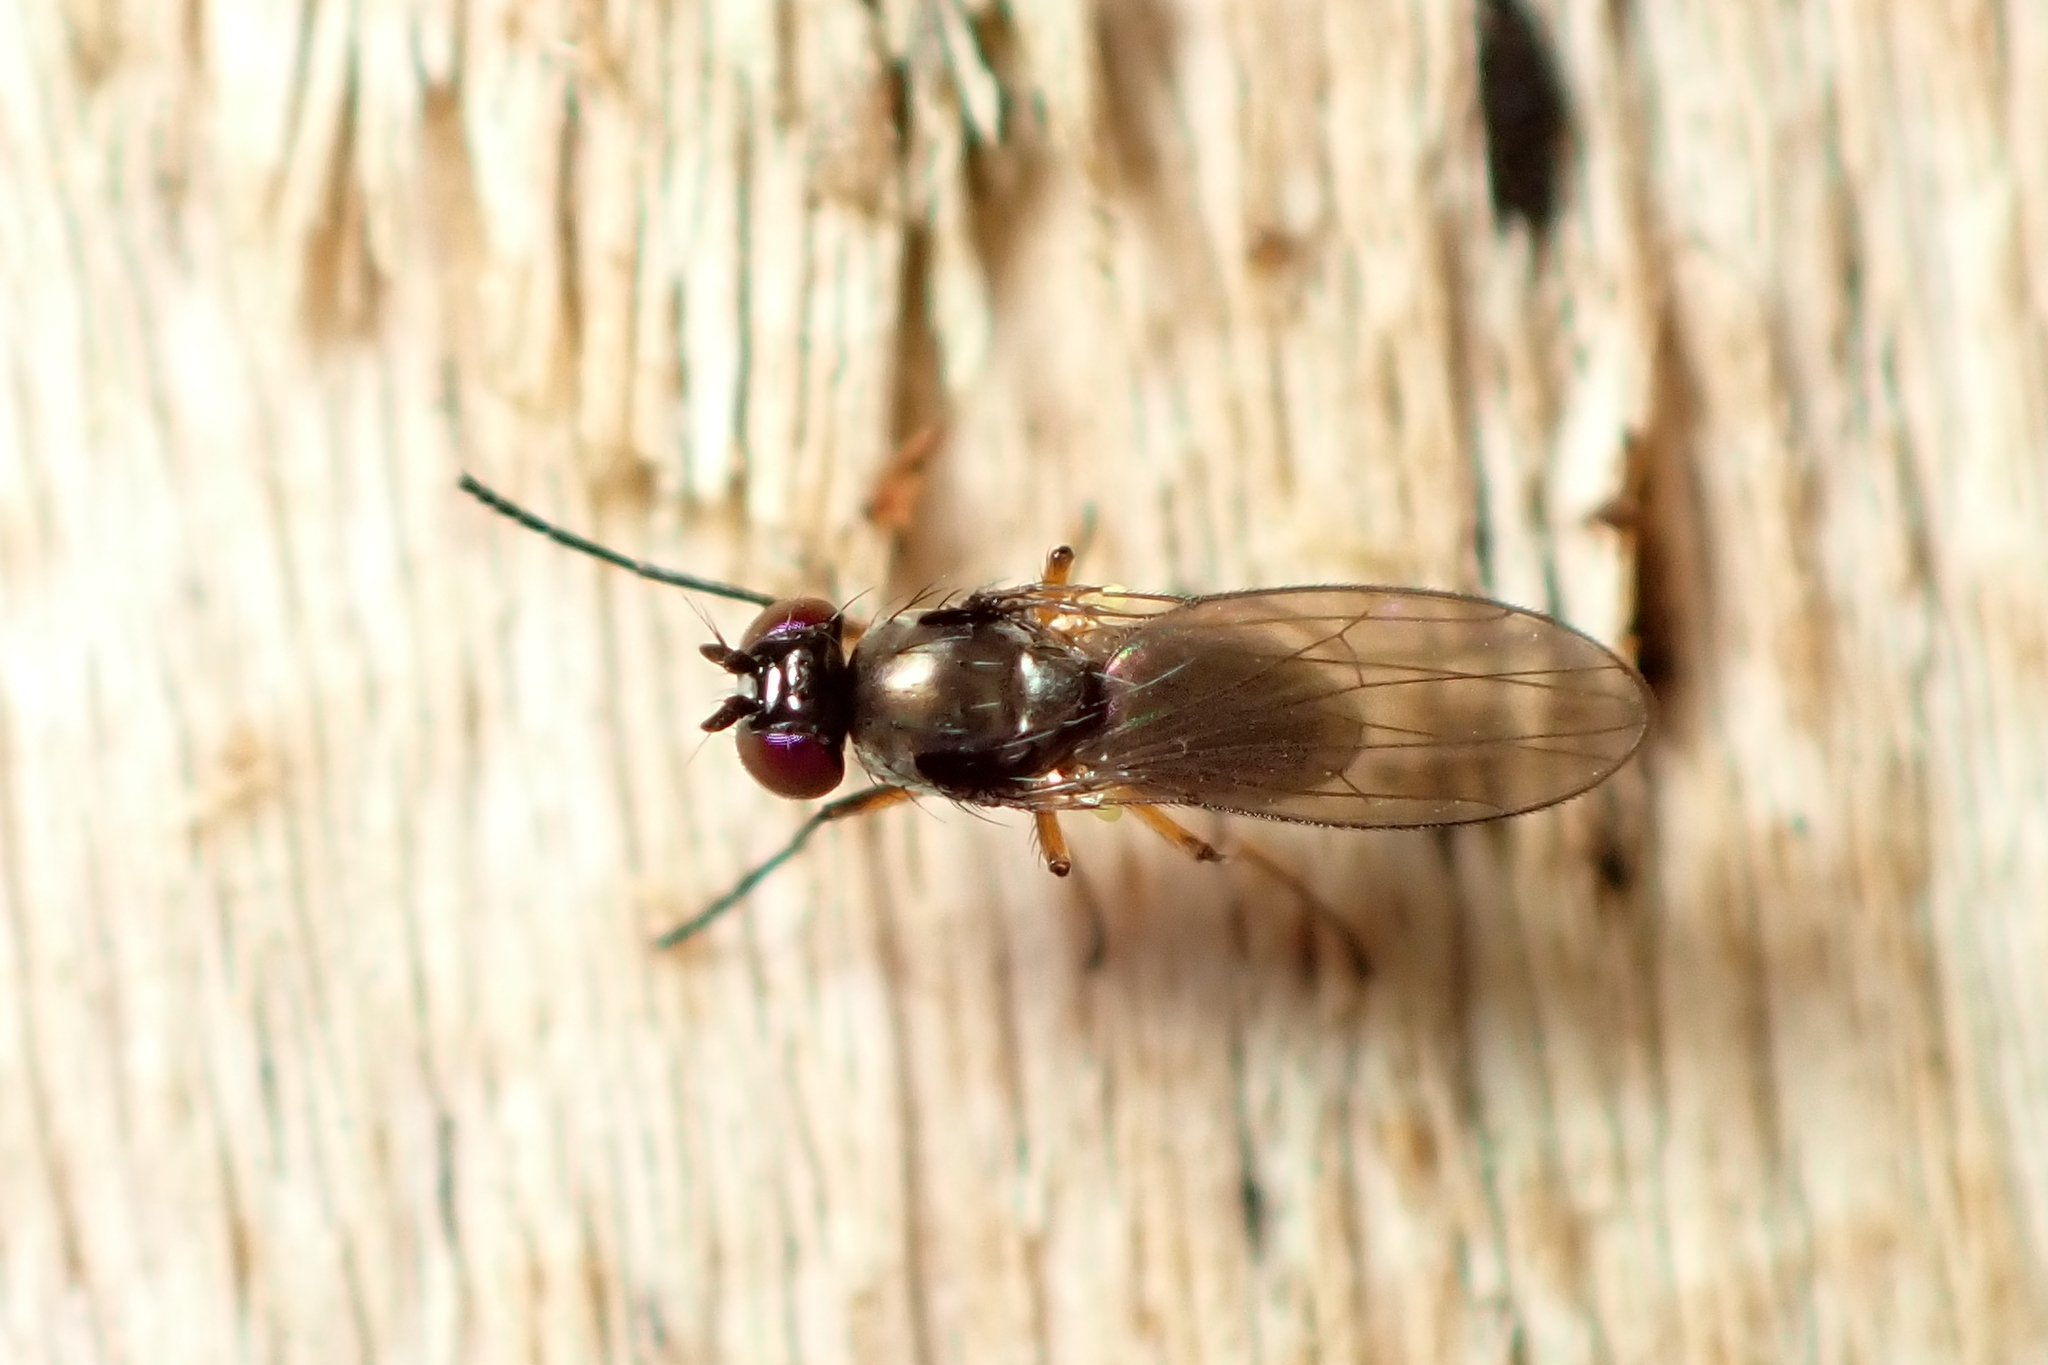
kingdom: Animalia
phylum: Arthropoda
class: Insecta
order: Diptera
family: Ephydridae
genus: Hydrellia
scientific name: Hydrellia tritici
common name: Shore fly
